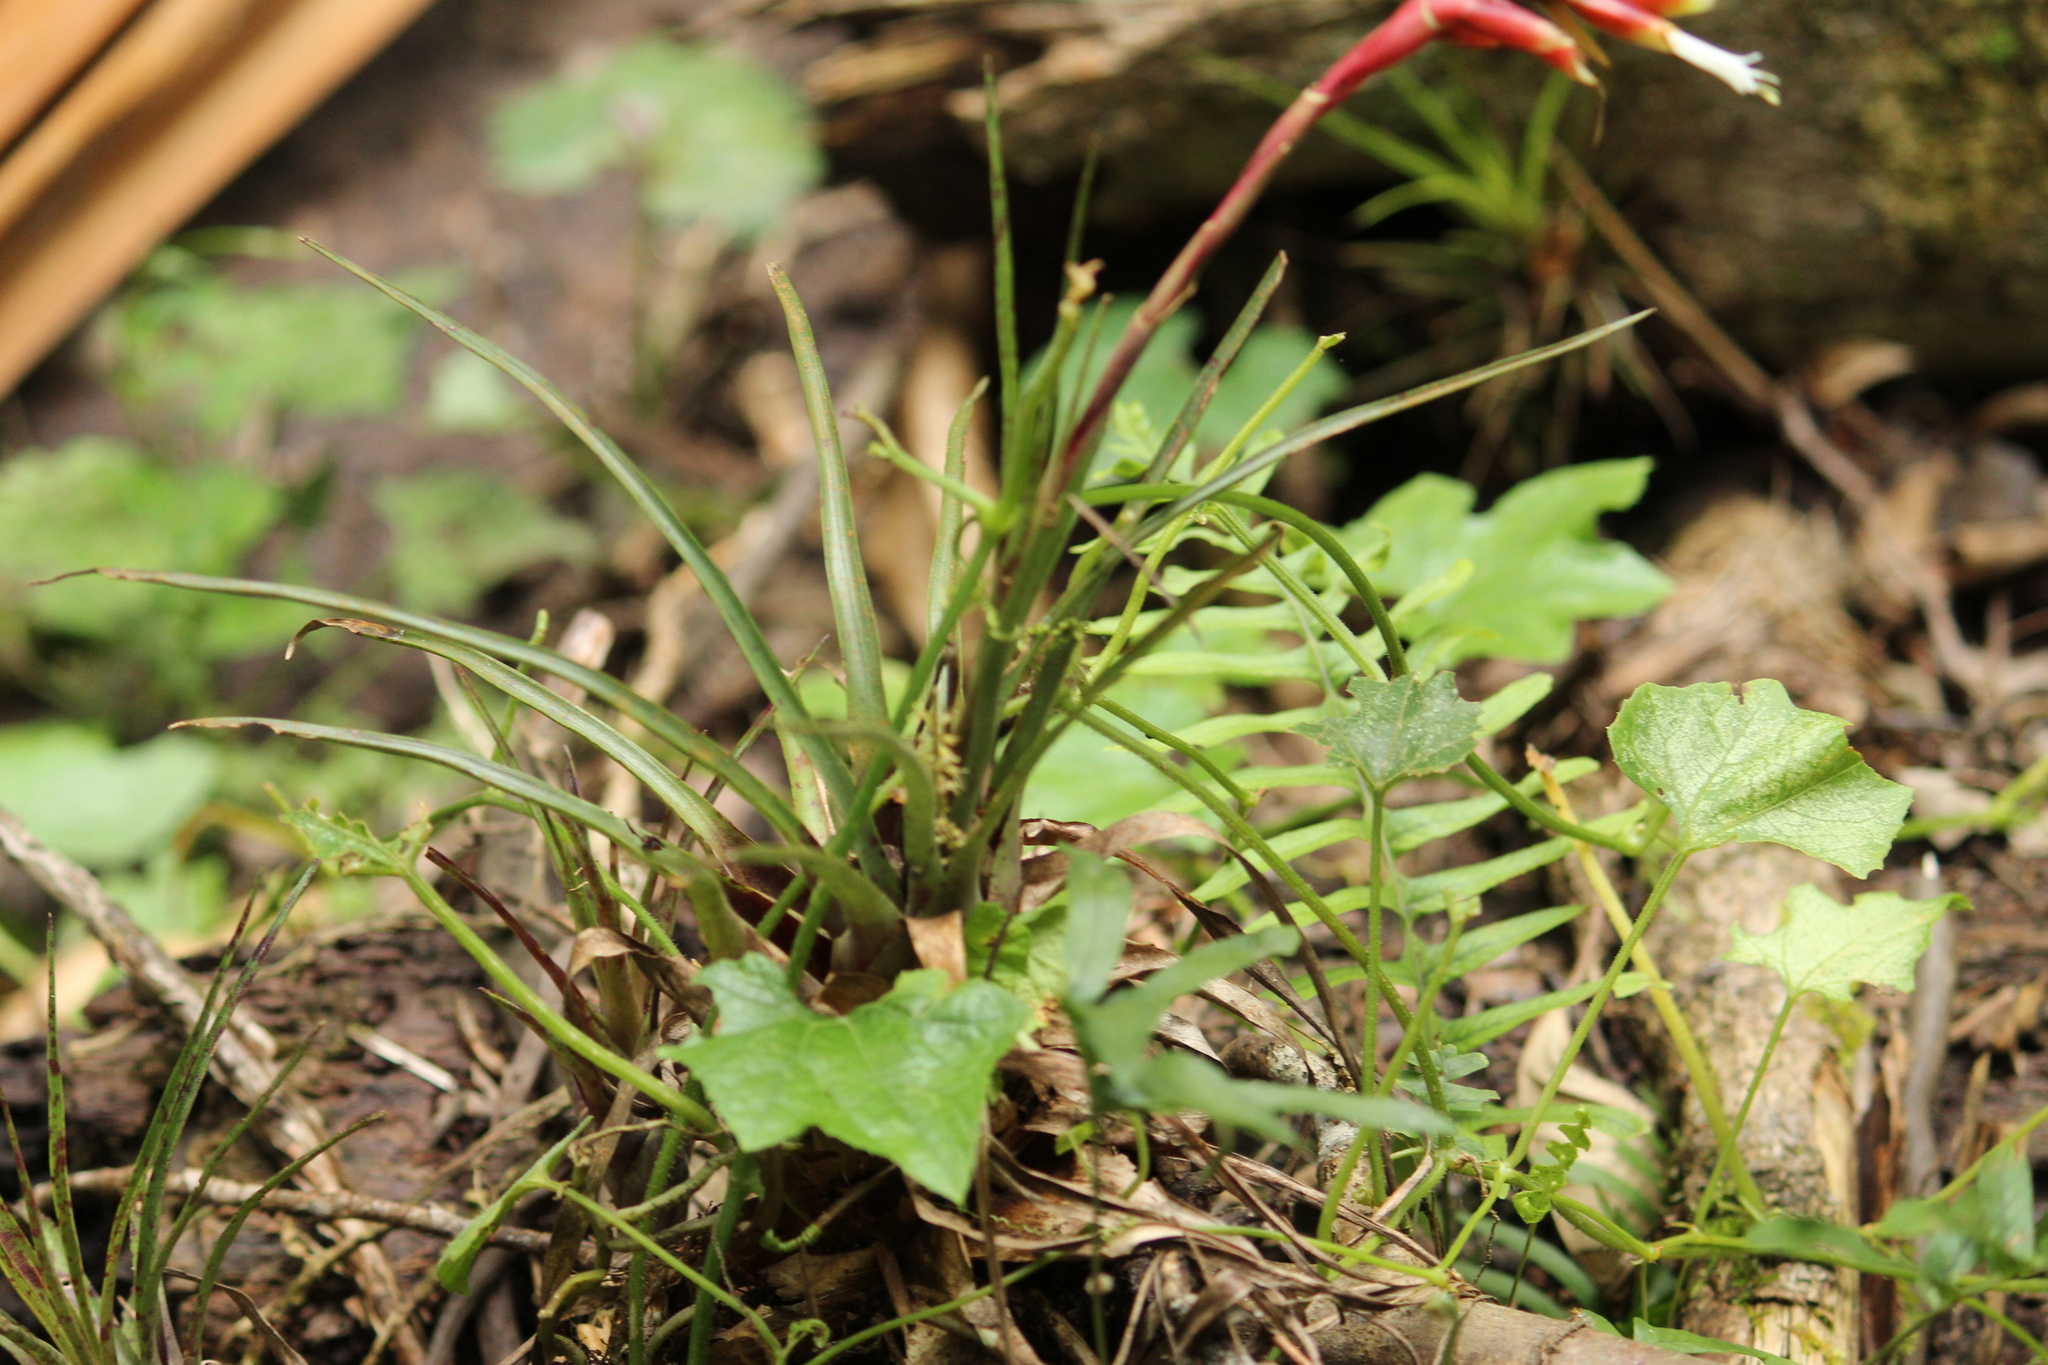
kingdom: Plantae
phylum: Tracheophyta
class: Liliopsida
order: Poales
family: Bromeliaceae
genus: Vriesea
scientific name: Vriesea flammea
